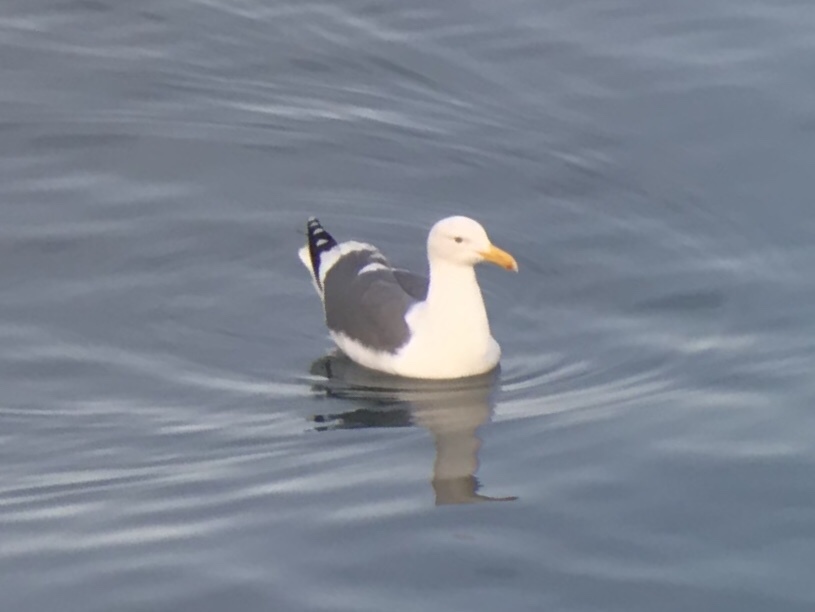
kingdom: Animalia
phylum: Chordata
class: Aves
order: Charadriiformes
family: Laridae
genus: Larus
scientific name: Larus occidentalis
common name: Western gull
